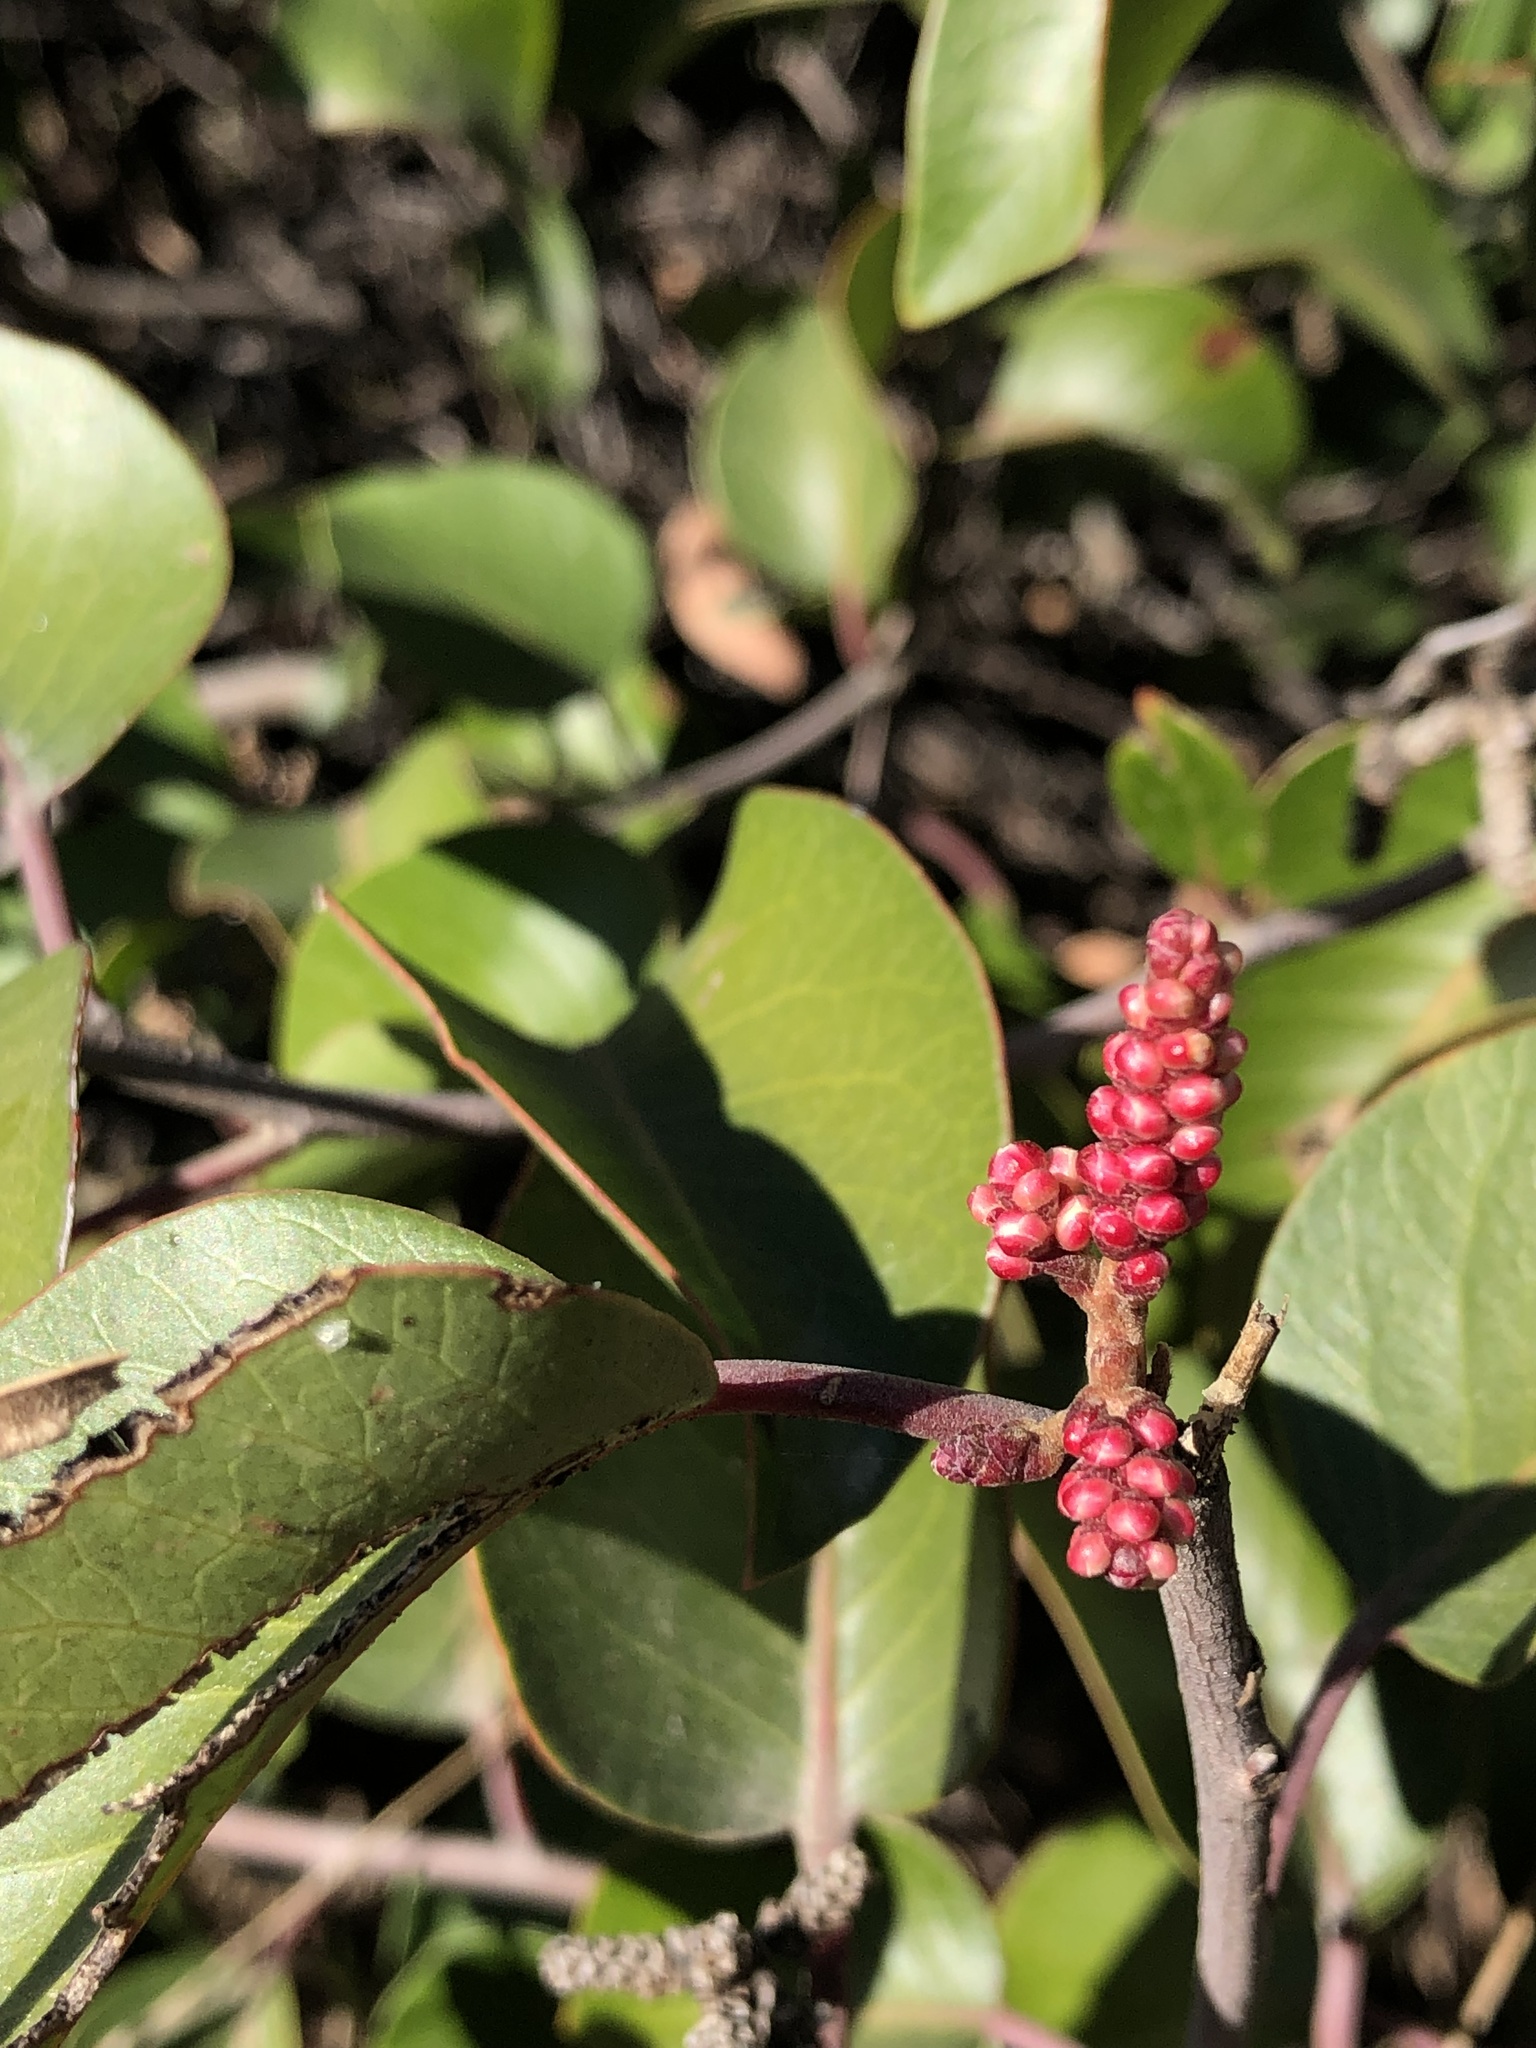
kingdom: Plantae
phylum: Tracheophyta
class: Magnoliopsida
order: Sapindales
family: Anacardiaceae
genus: Rhus
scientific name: Rhus ovata
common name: Sugar sumac
